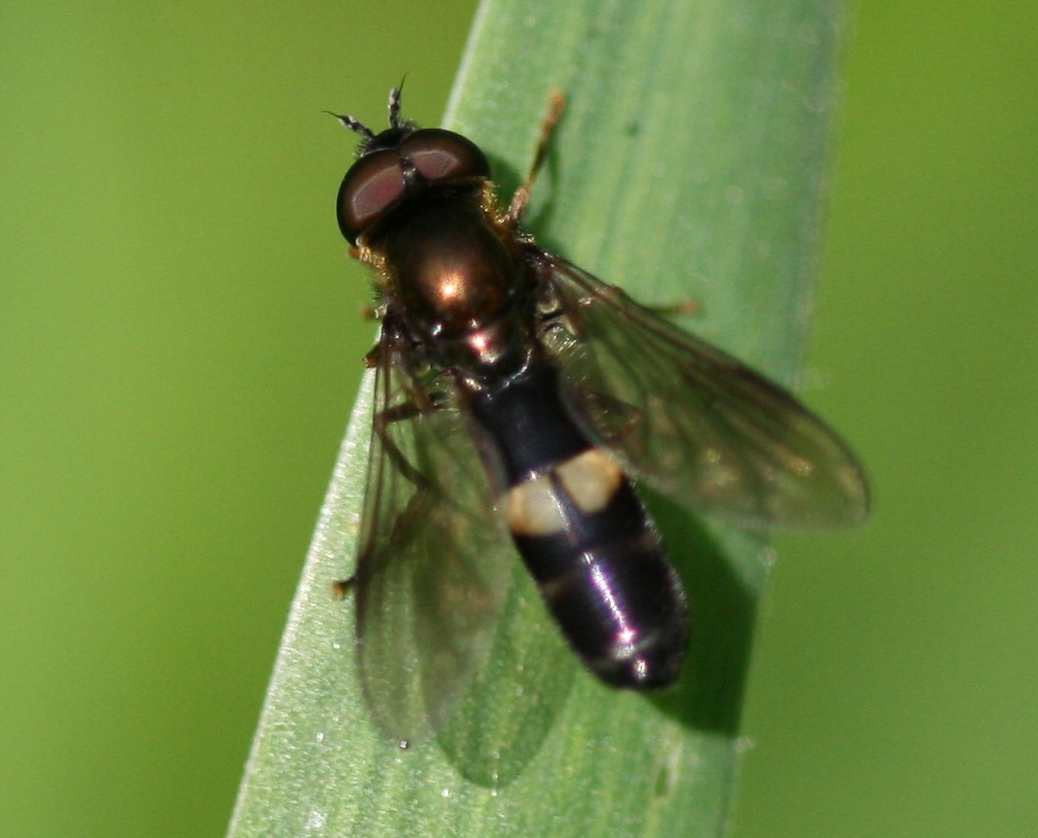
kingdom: Animalia
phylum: Arthropoda
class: Insecta
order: Diptera
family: Syrphidae
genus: Pyrophaena
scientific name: Pyrophaena rosarum
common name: Fourspot sedgesitter
